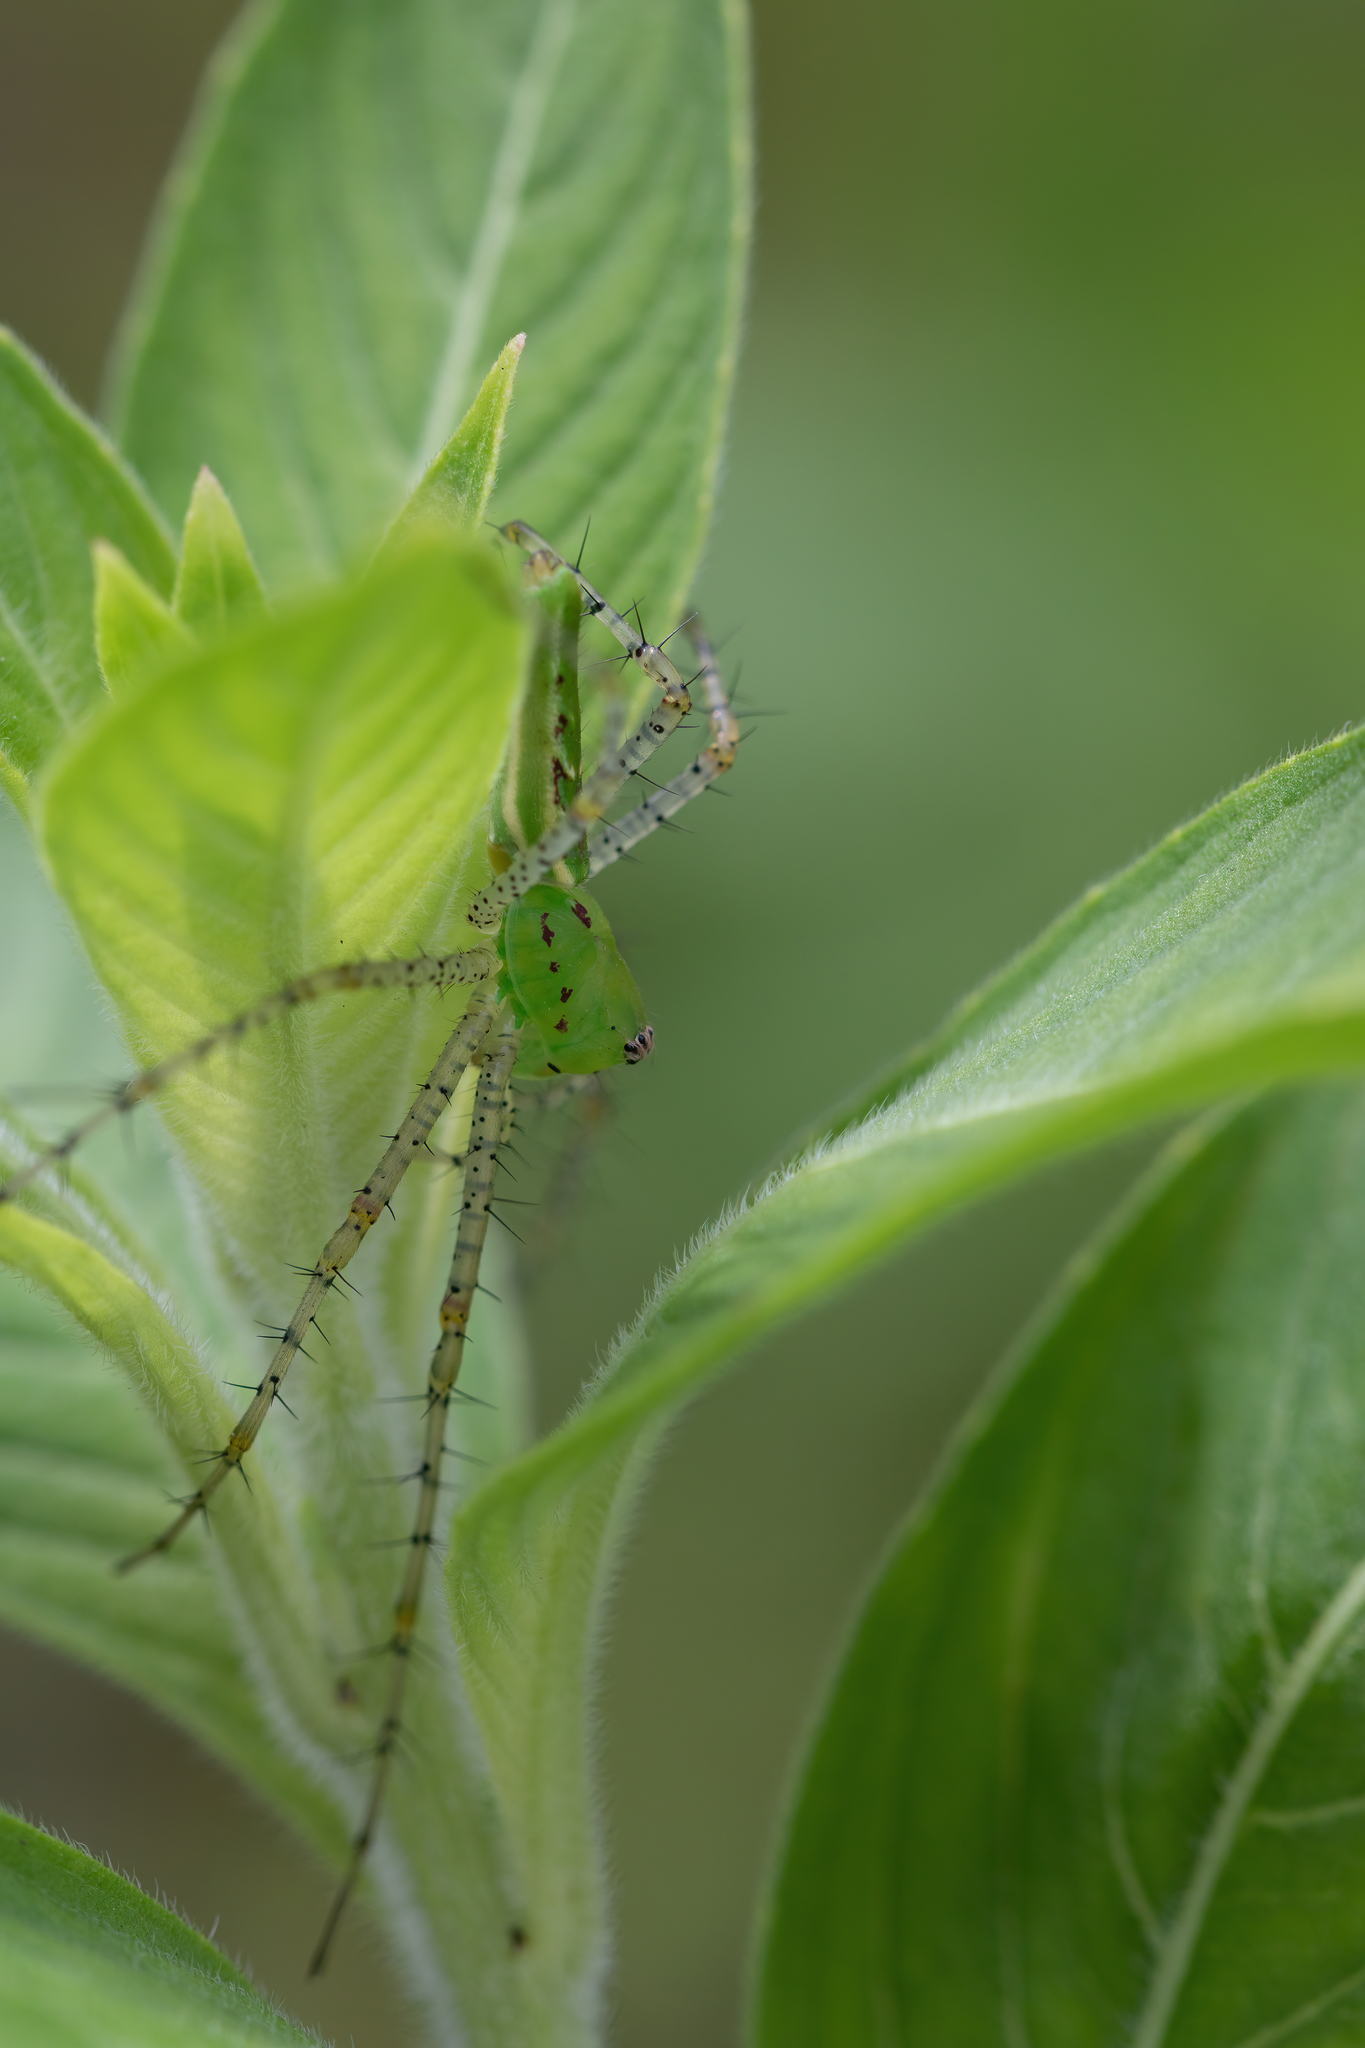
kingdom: Animalia
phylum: Arthropoda
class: Arachnida
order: Araneae
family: Oxyopidae
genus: Peucetia
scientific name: Peucetia viridans
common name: Lynx spiders
